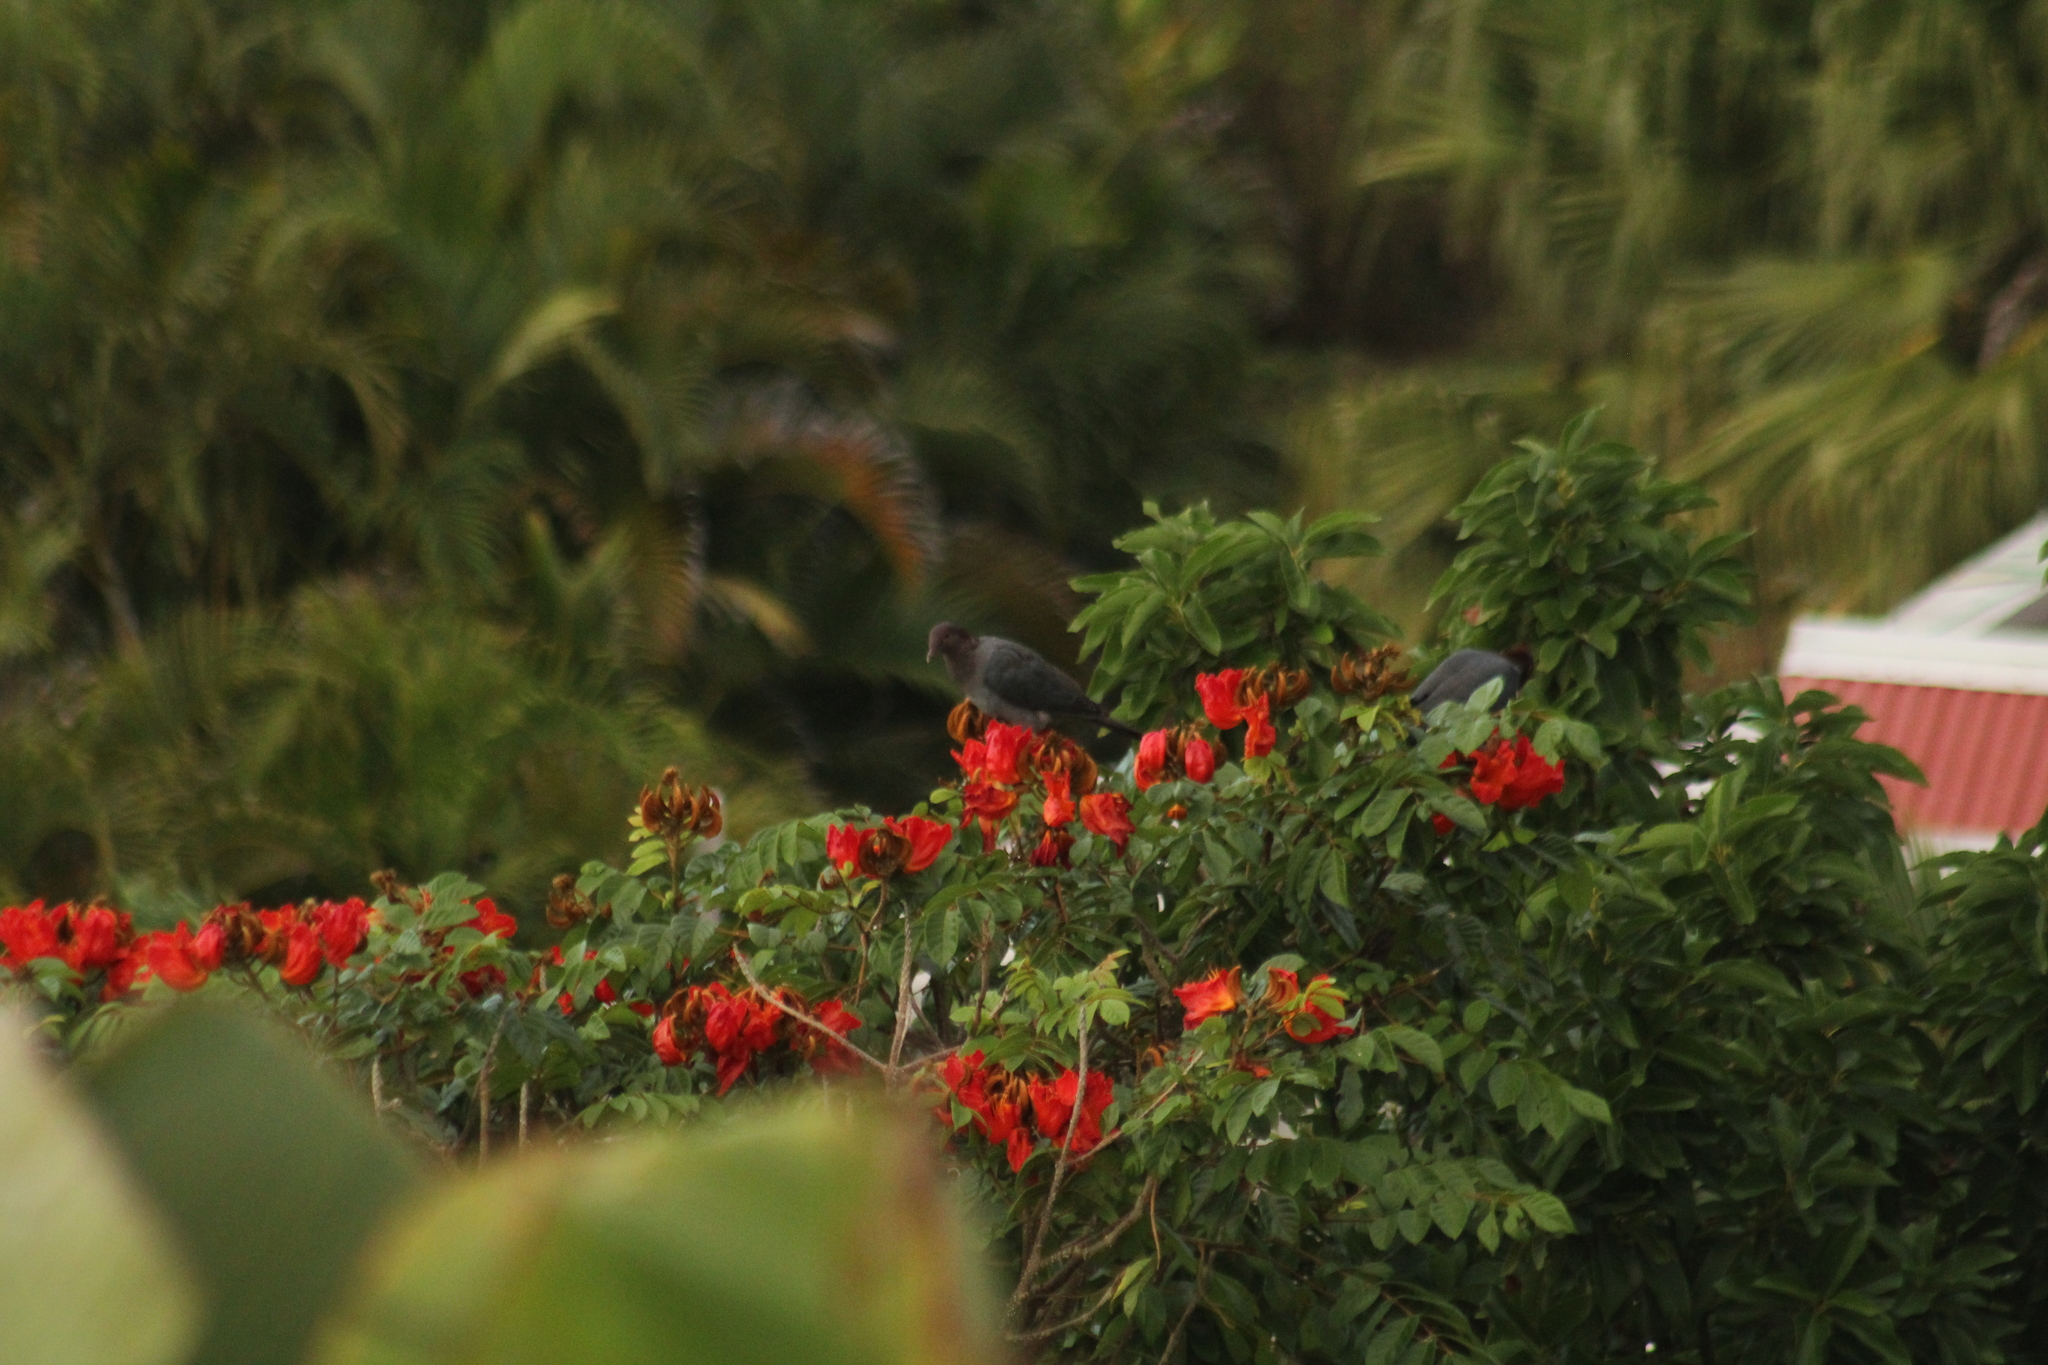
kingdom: Animalia
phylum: Chordata
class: Aves
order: Columbiformes
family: Columbidae
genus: Patagioenas
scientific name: Patagioenas squamosa
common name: Scaly-naped pigeon
